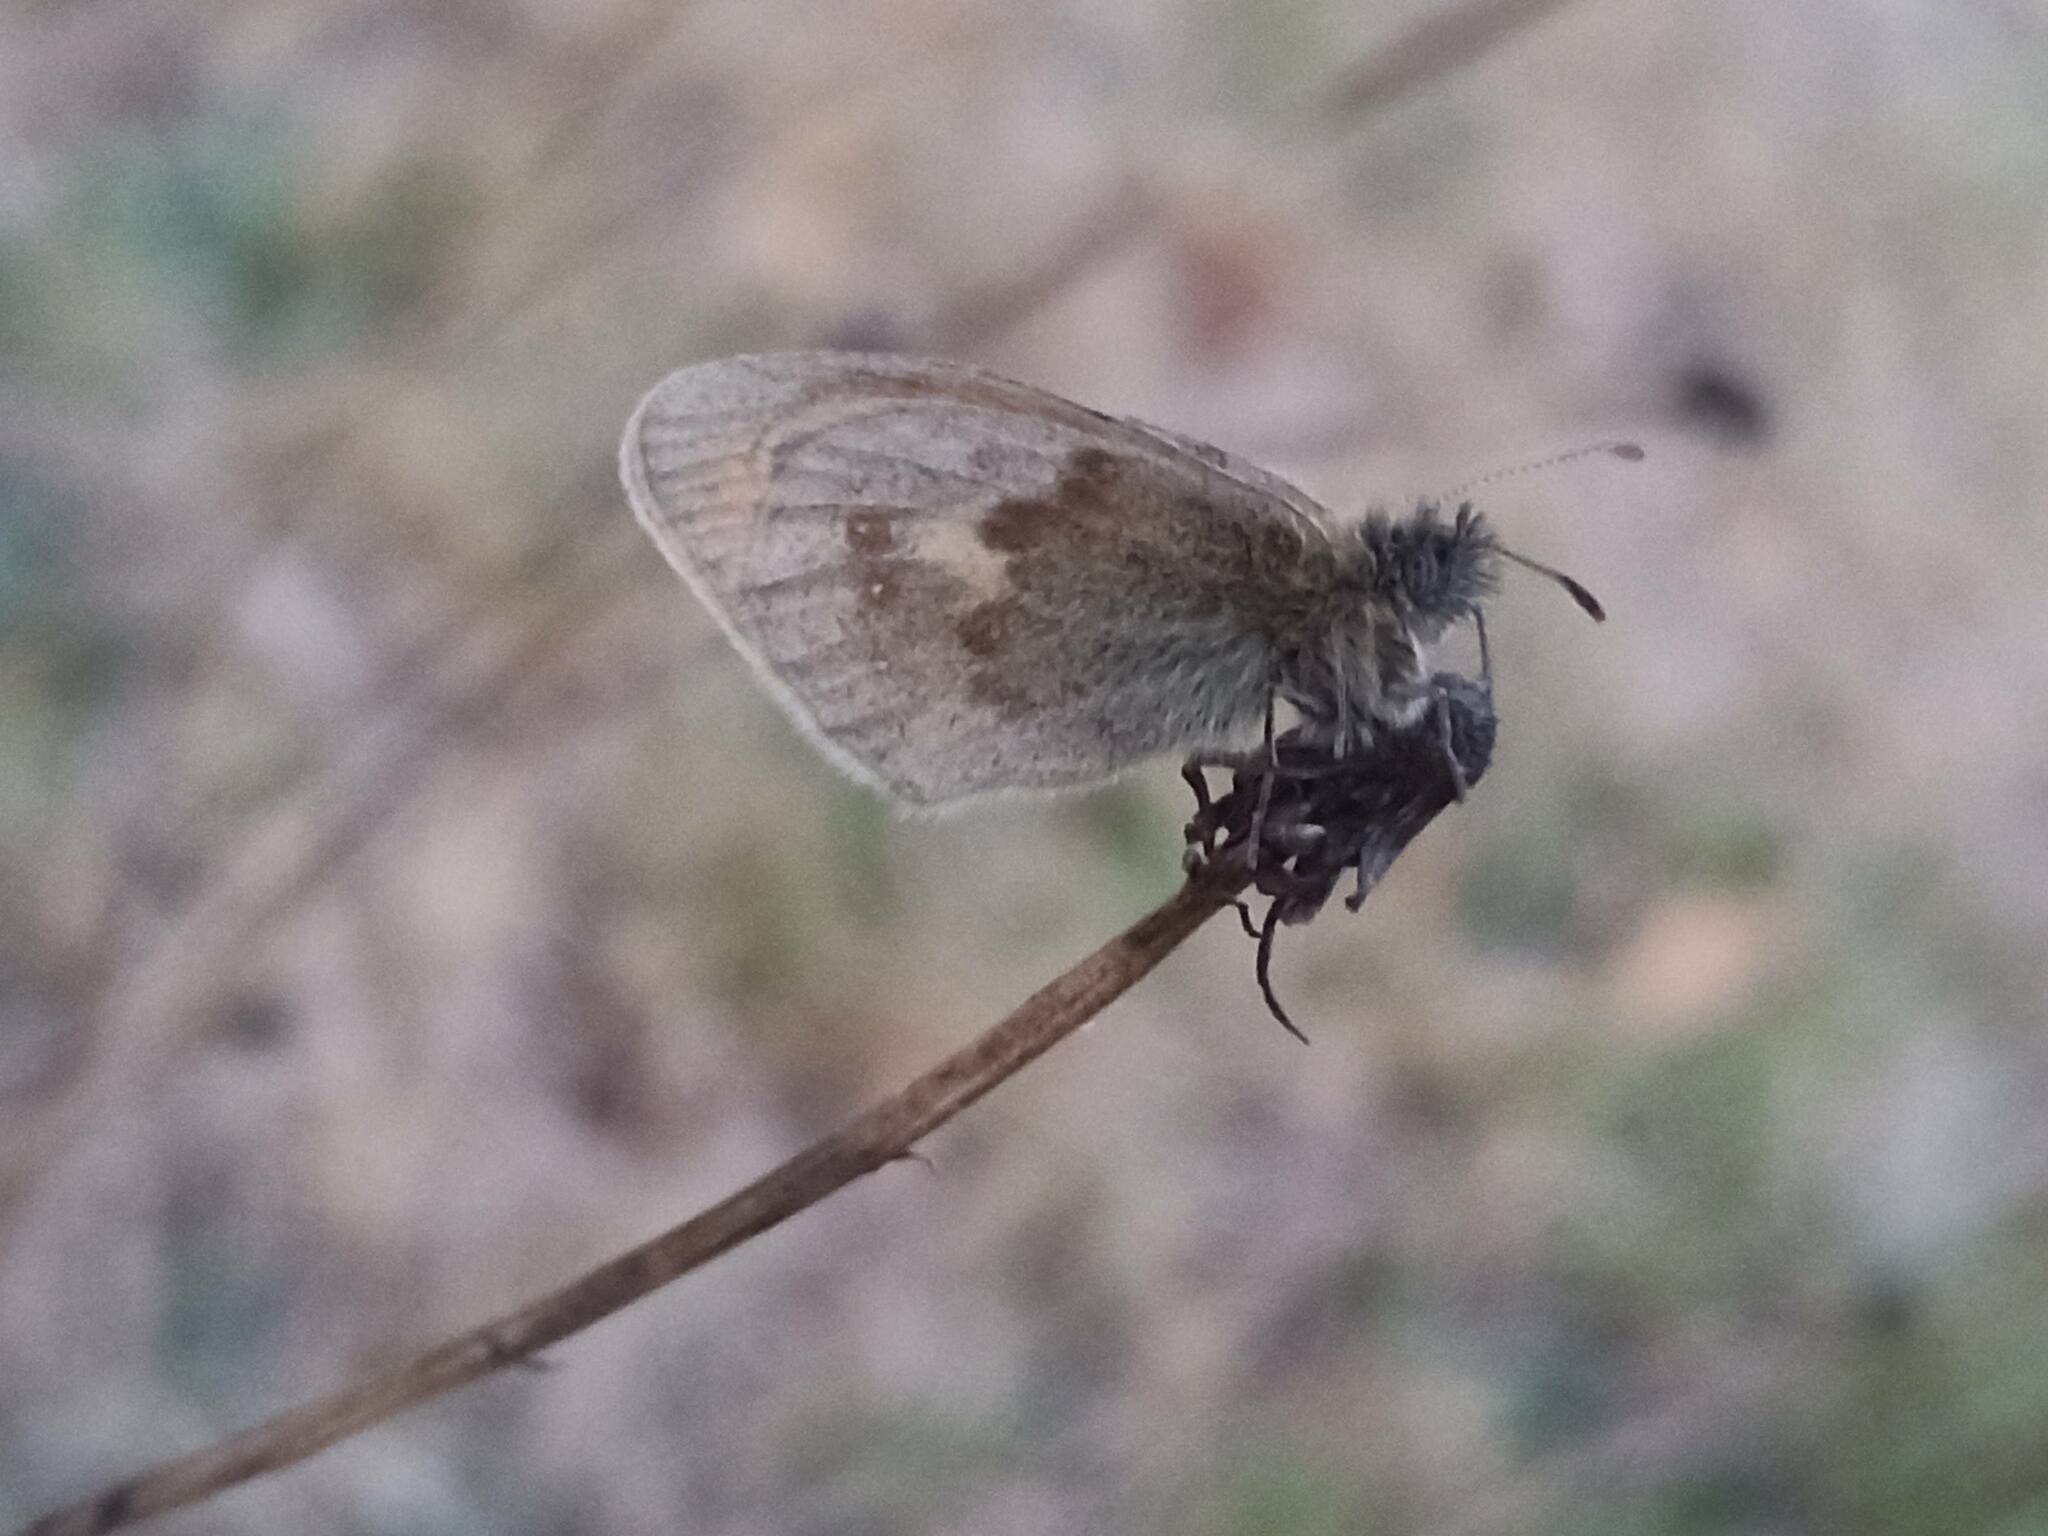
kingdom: Animalia
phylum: Arthropoda
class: Insecta
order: Lepidoptera
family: Nymphalidae
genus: Coenonympha
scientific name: Coenonympha pamphilus
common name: Small heath
